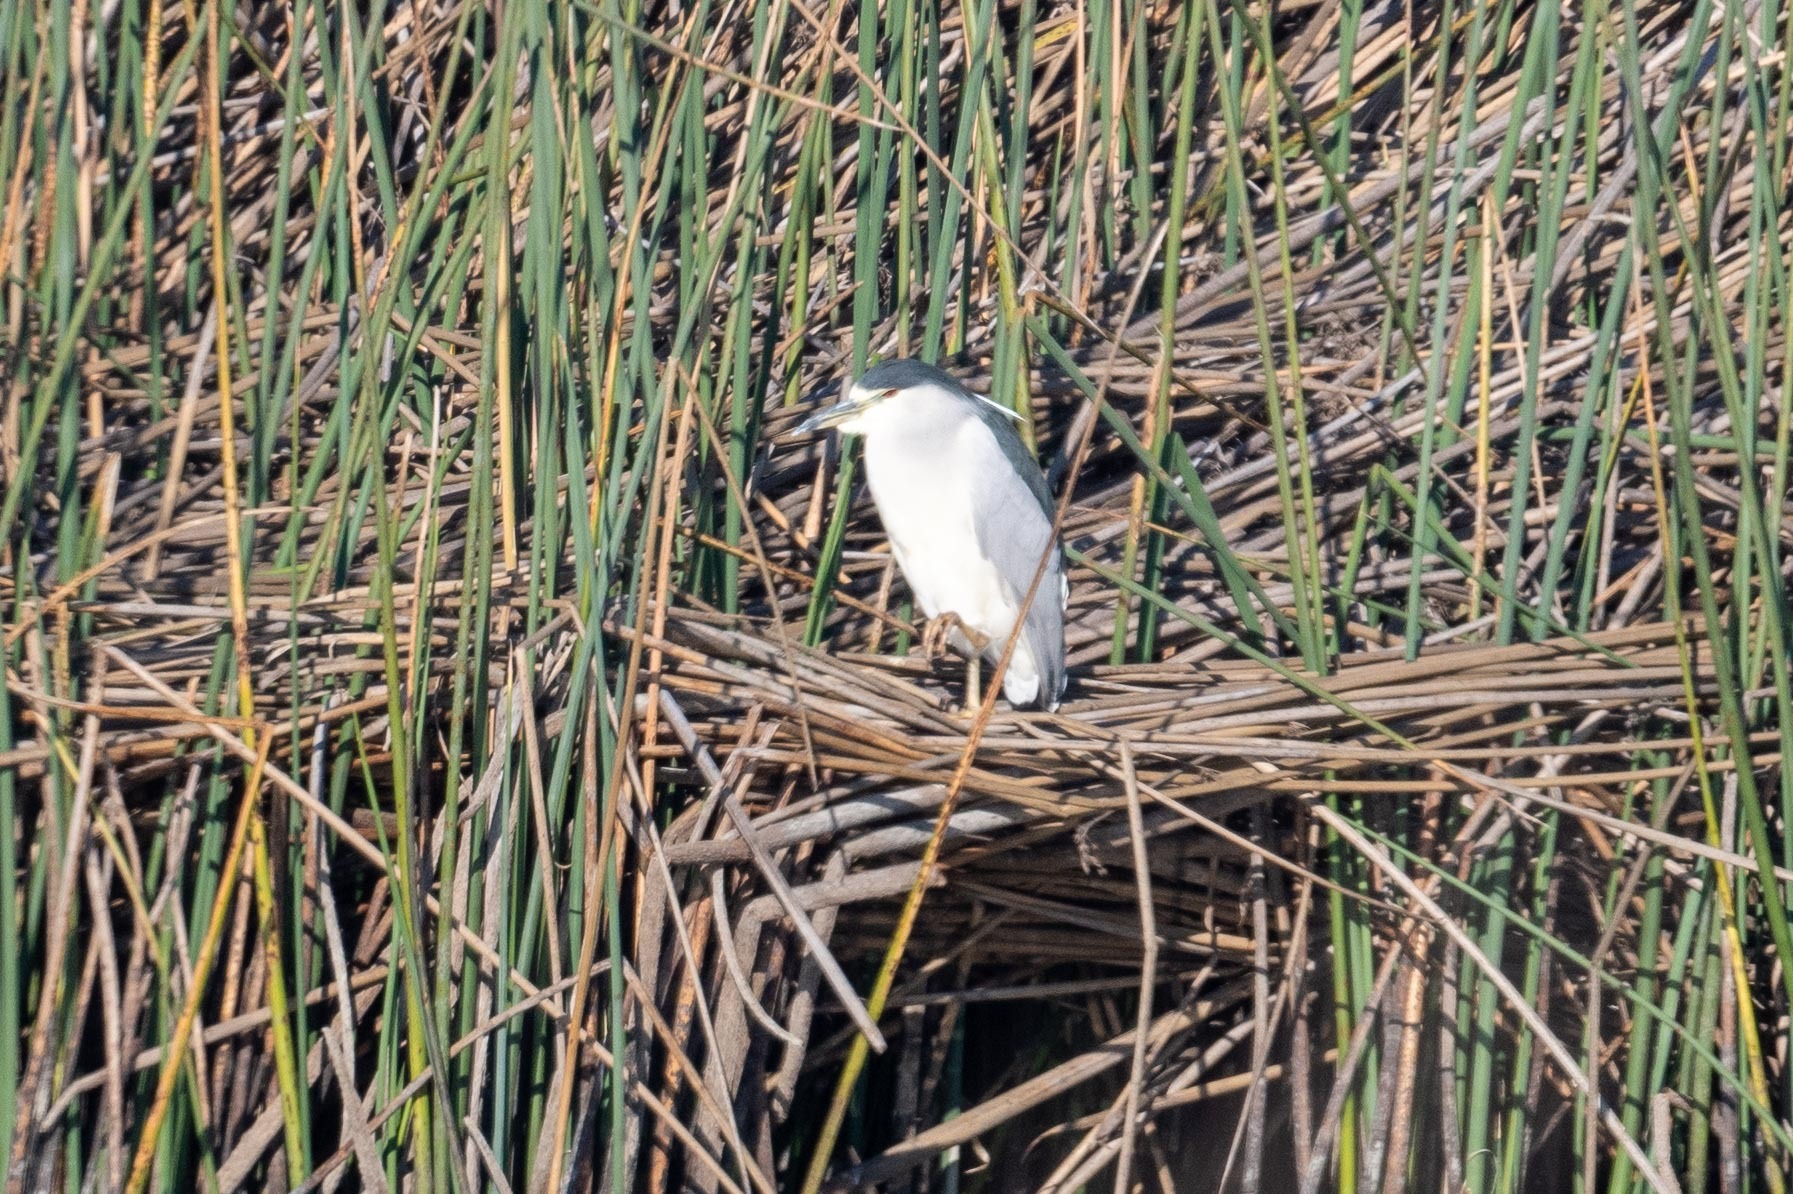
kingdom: Animalia
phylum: Chordata
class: Aves
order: Pelecaniformes
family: Ardeidae
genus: Nycticorax
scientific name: Nycticorax nycticorax
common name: Black-crowned night heron
